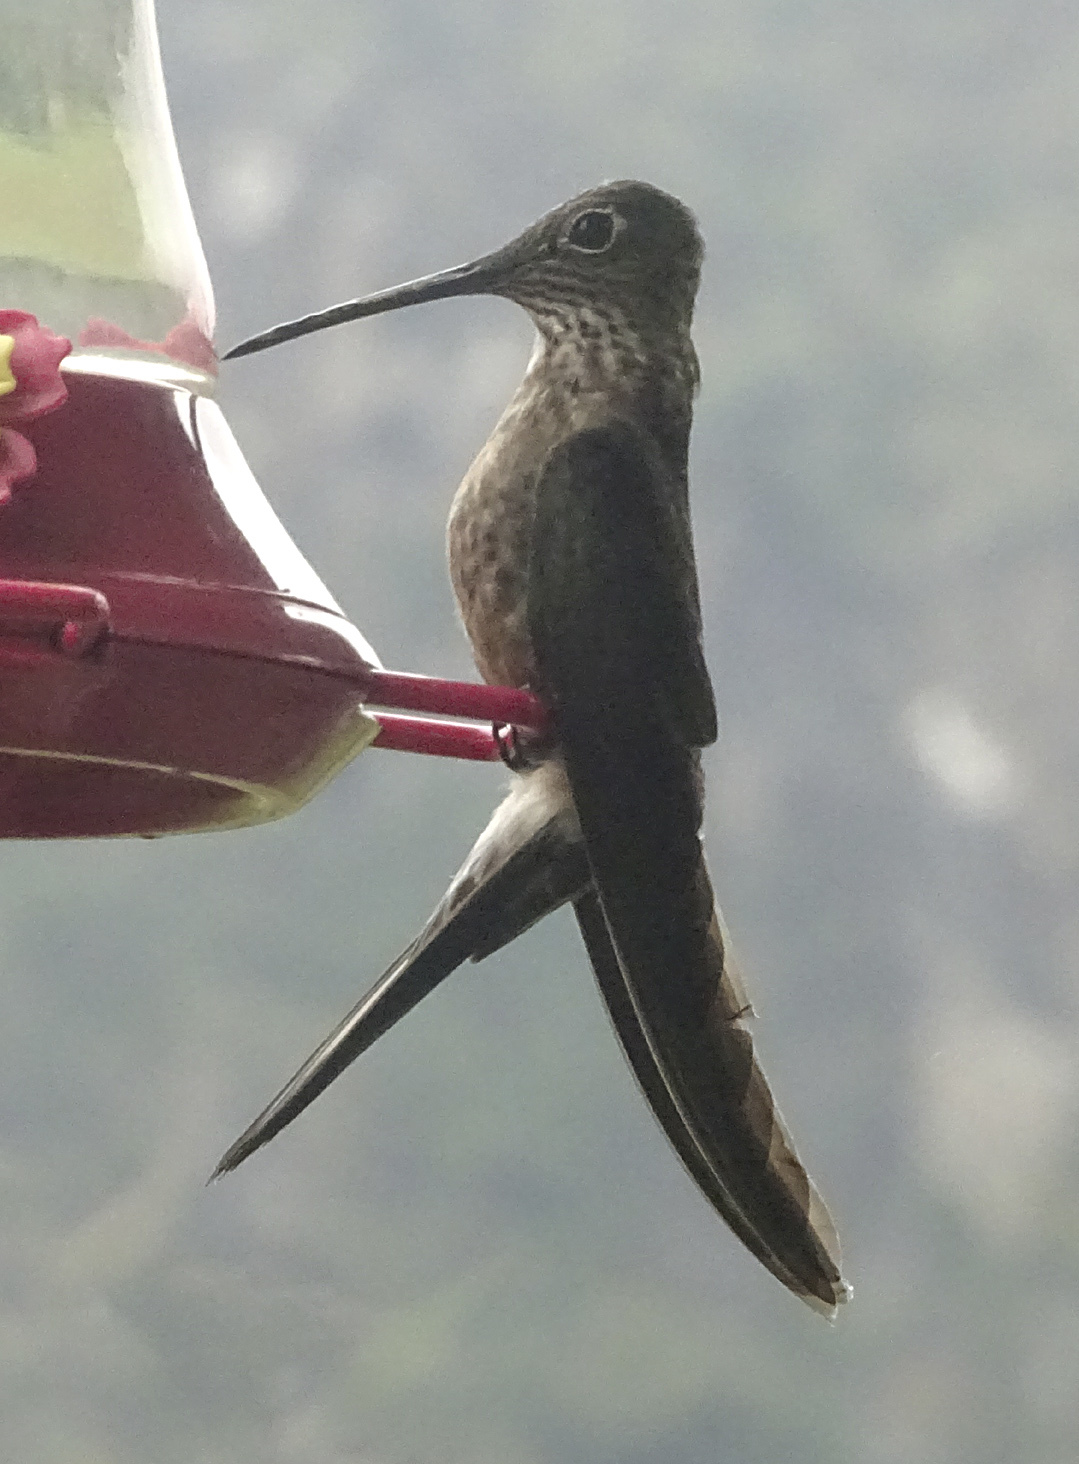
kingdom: Animalia
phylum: Chordata
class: Aves
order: Apodiformes
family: Trochilidae
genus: Patagona
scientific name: Patagona gigas
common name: Giant hummingbird
